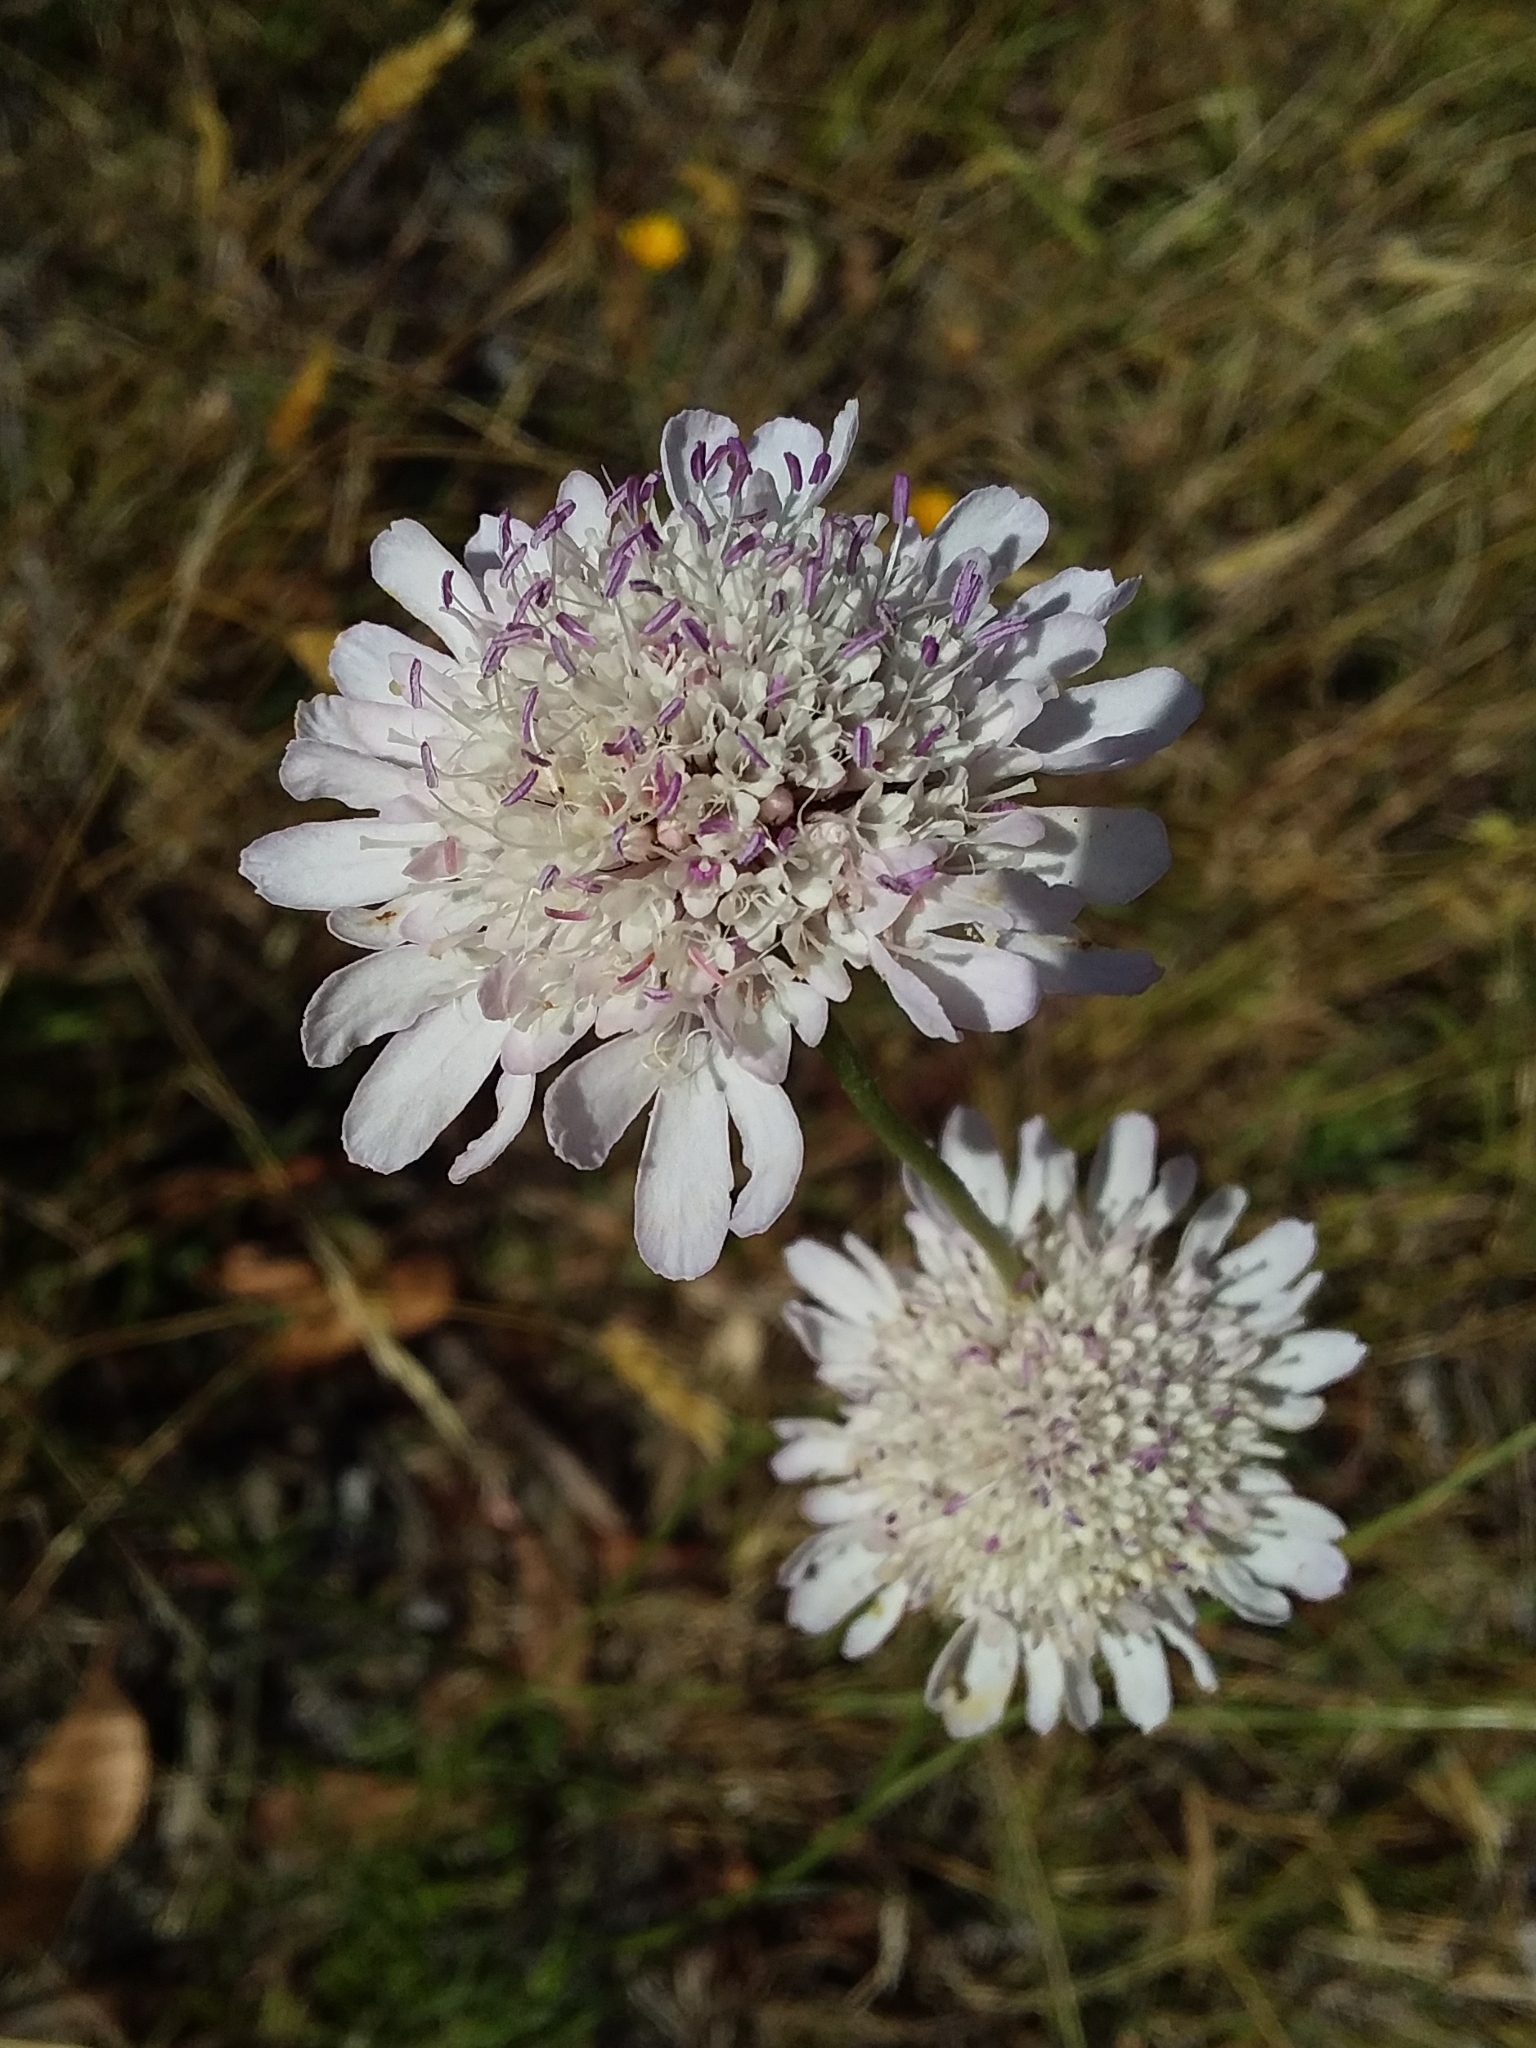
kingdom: Plantae
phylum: Tracheophyta
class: Magnoliopsida
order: Dipsacales
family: Caprifoliaceae
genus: Sixalix
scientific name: Sixalix atropurpurea
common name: Sweet scabious
